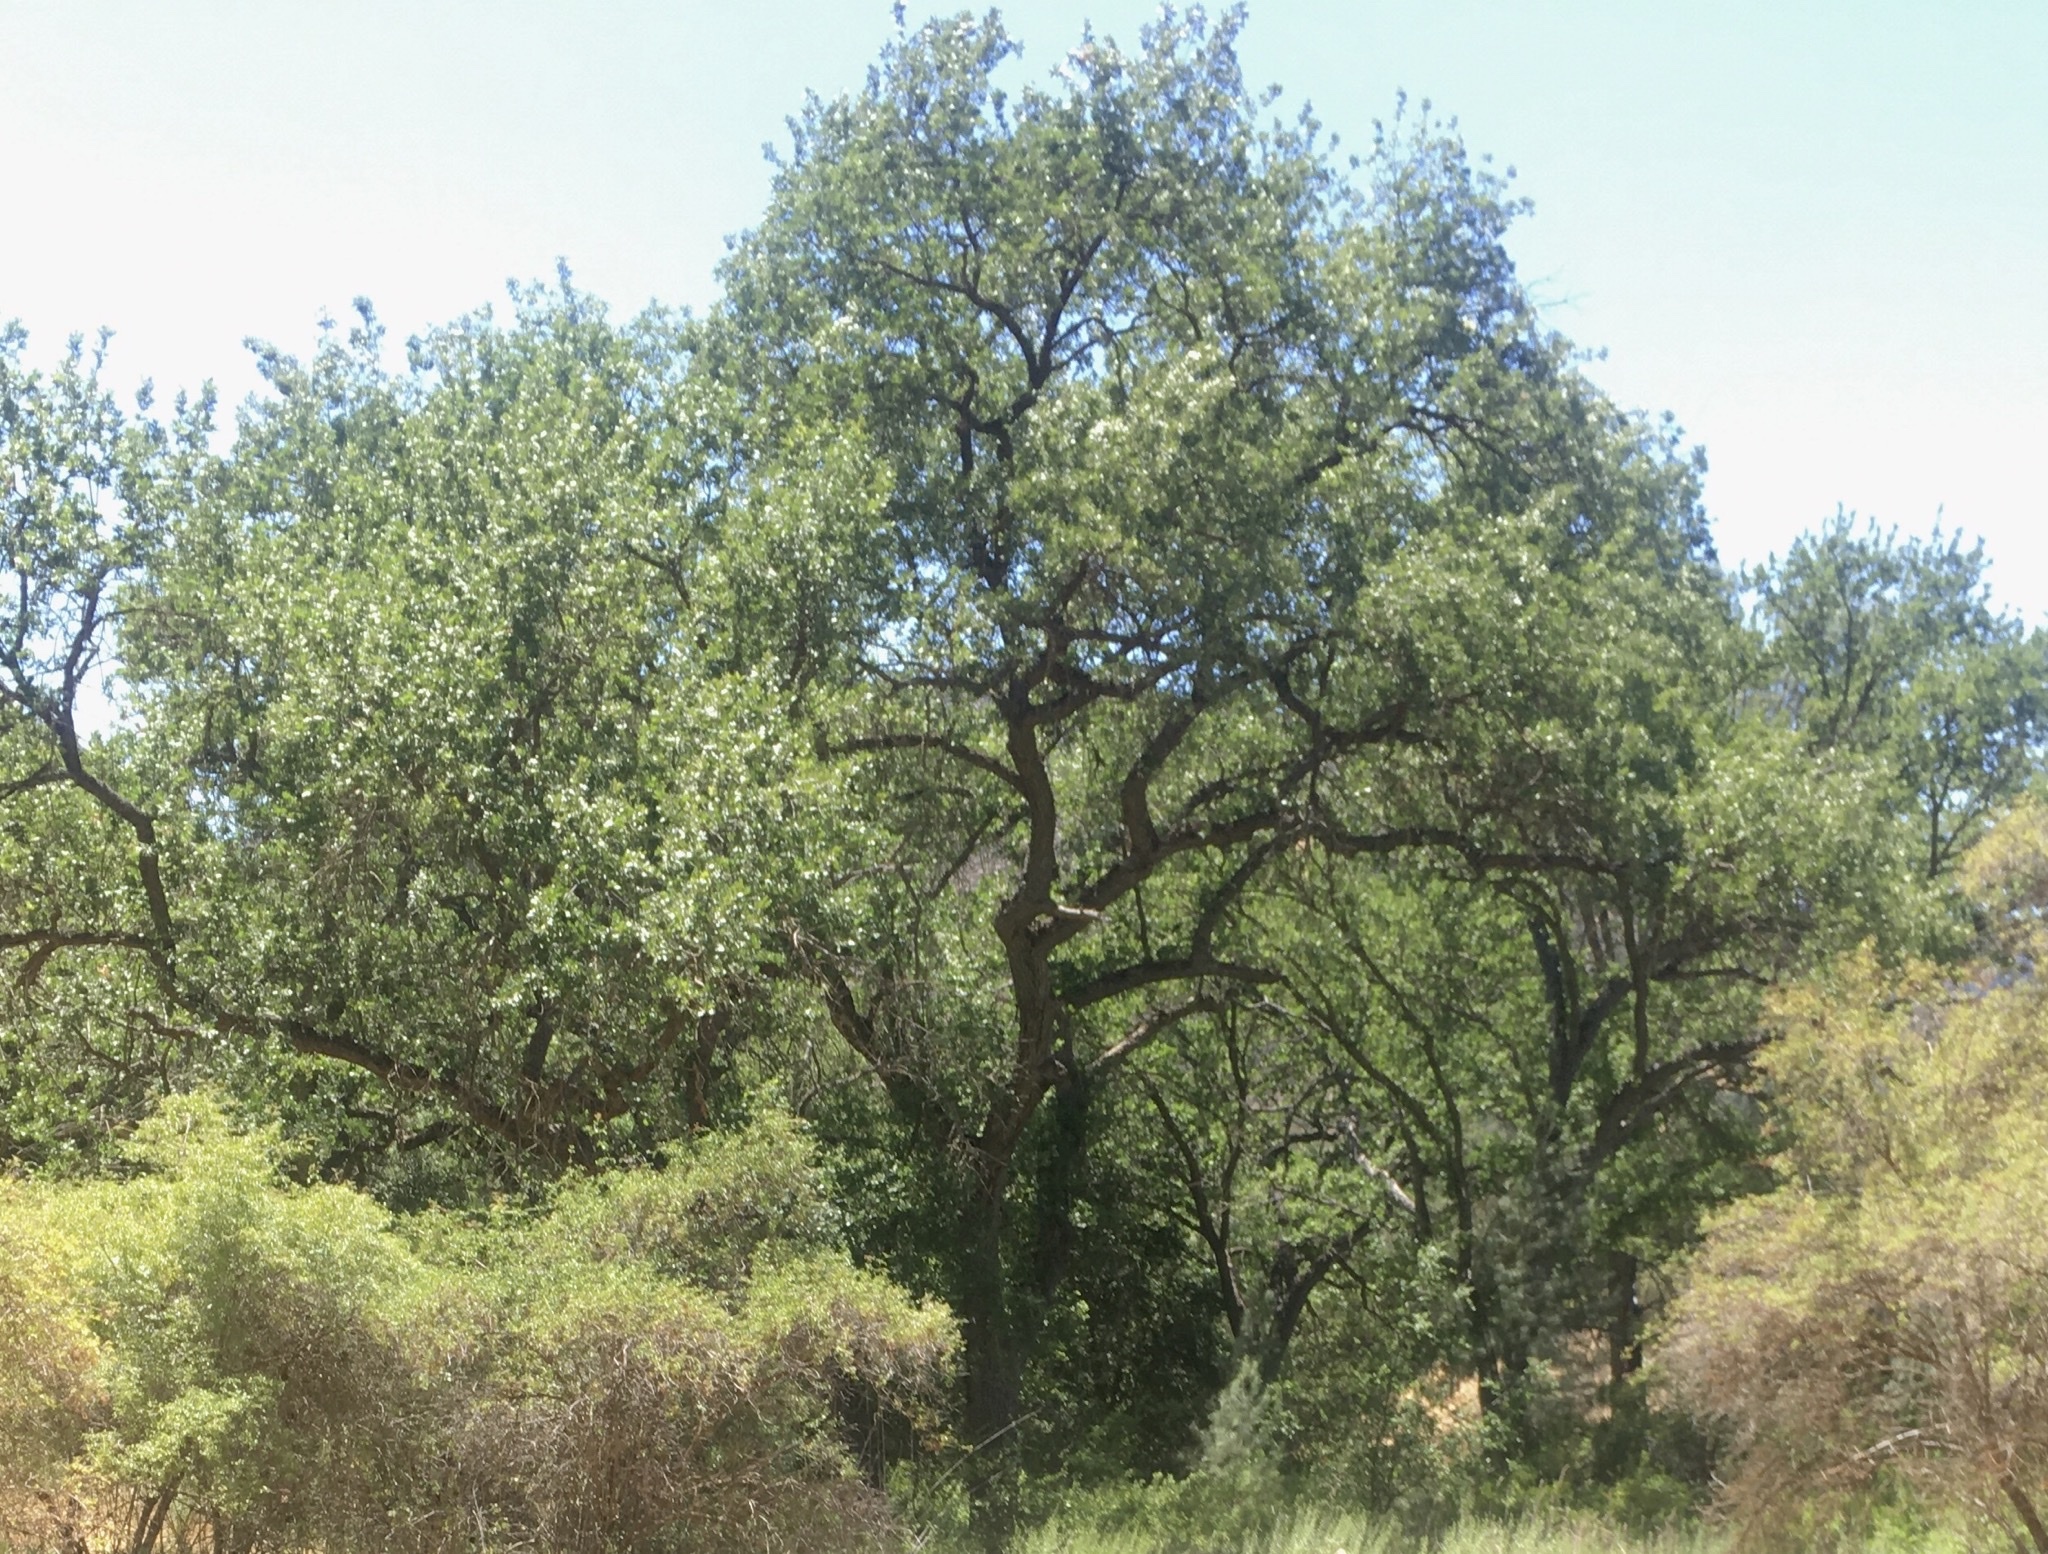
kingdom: Plantae
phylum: Tracheophyta
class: Magnoliopsida
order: Fagales
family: Fagaceae
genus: Quercus
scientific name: Quercus lobata
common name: Valley oak
